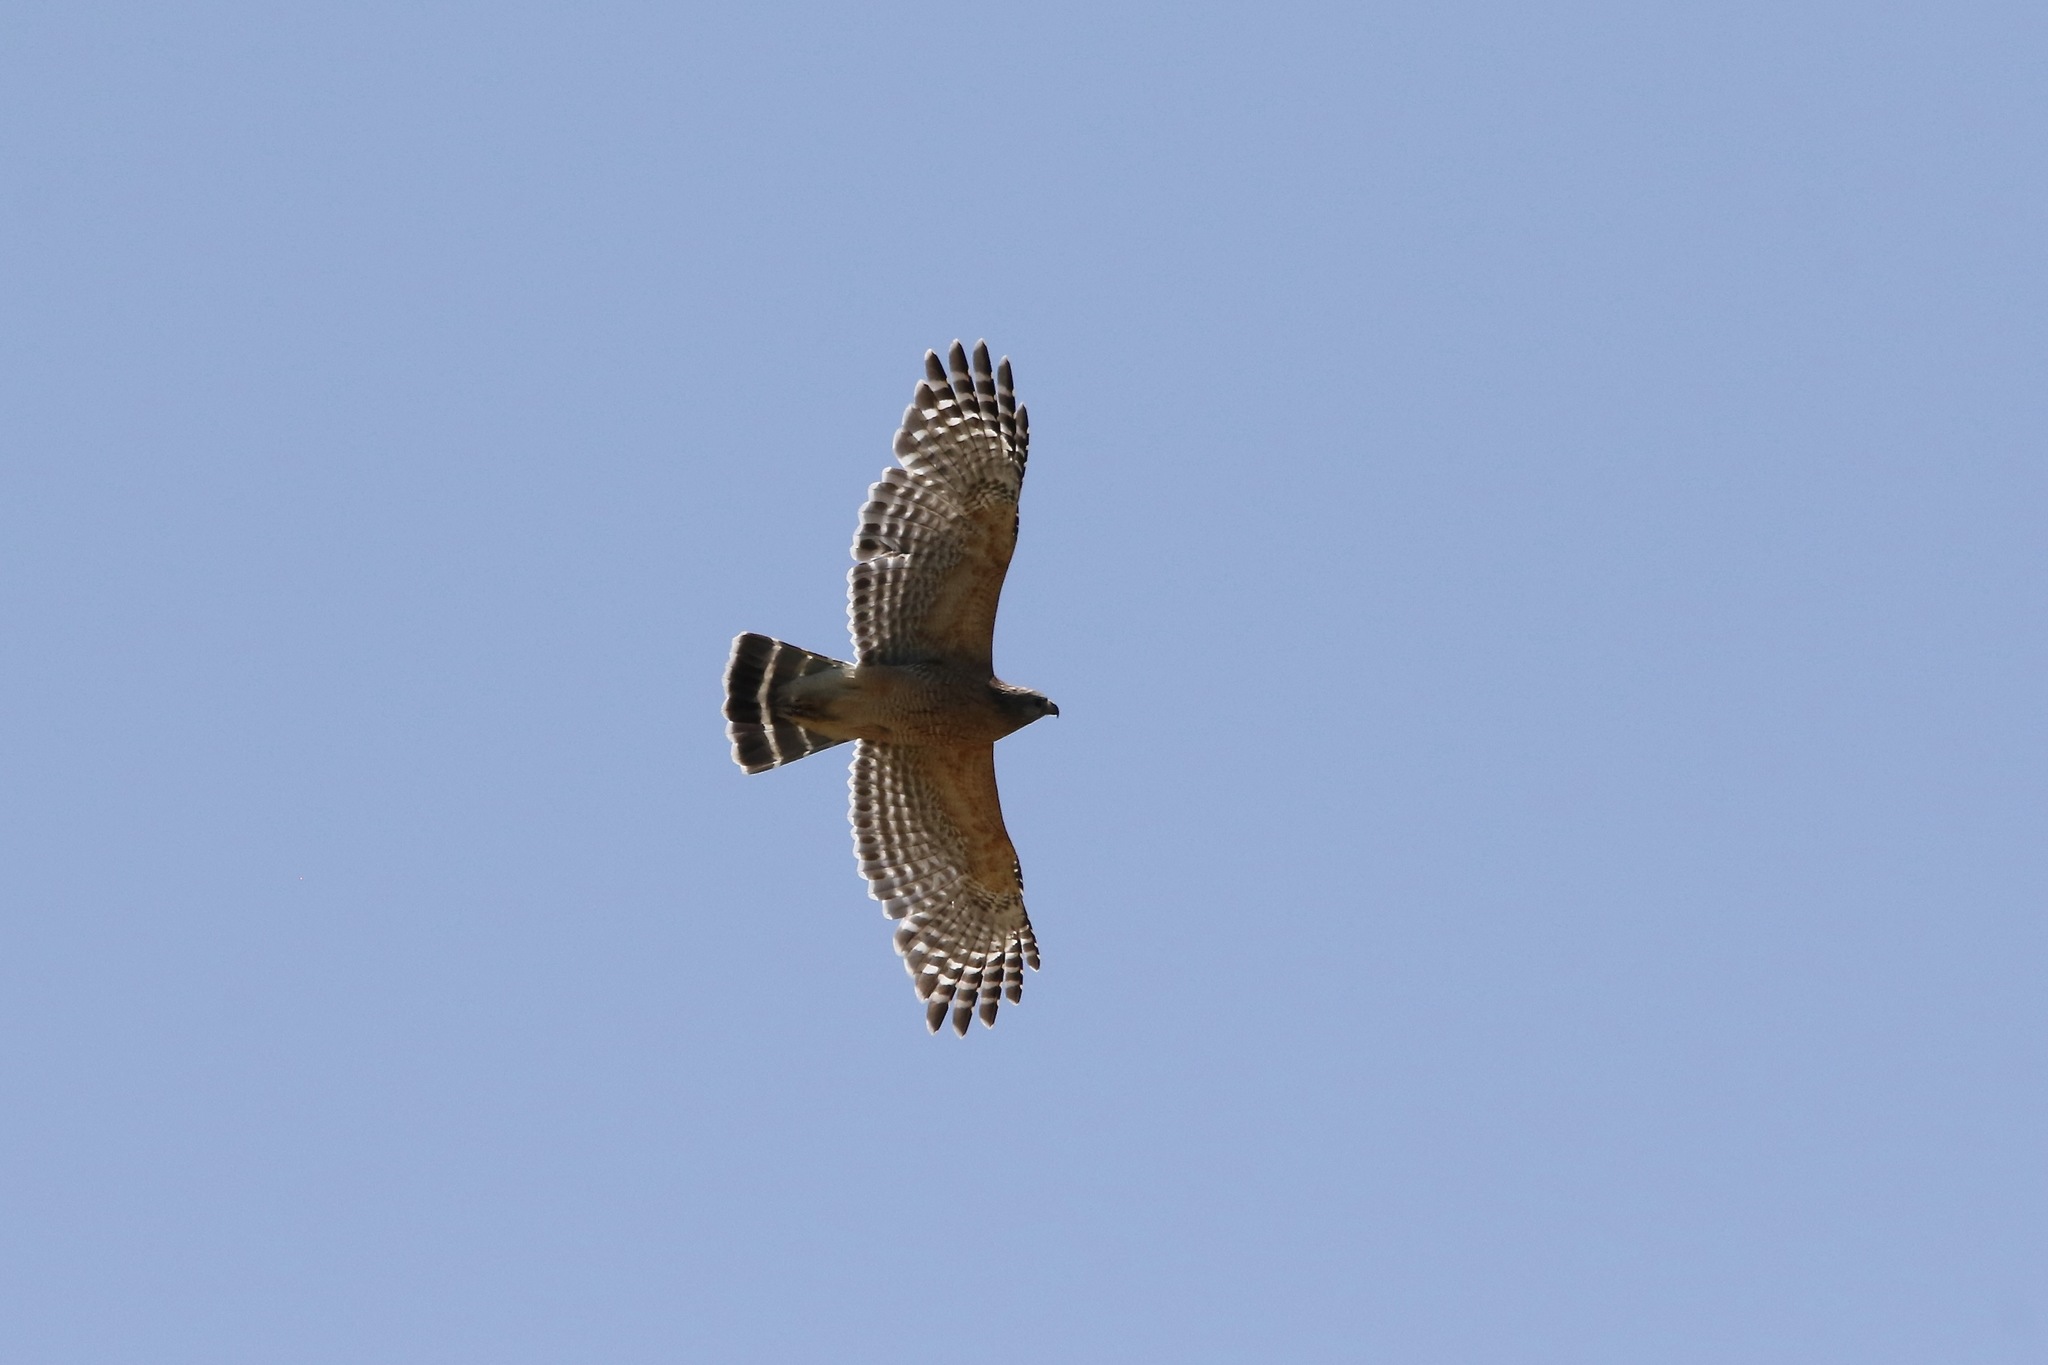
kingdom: Animalia
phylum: Chordata
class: Aves
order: Accipitriformes
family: Accipitridae
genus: Buteo
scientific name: Buteo lineatus
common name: Red-shouldered hawk
